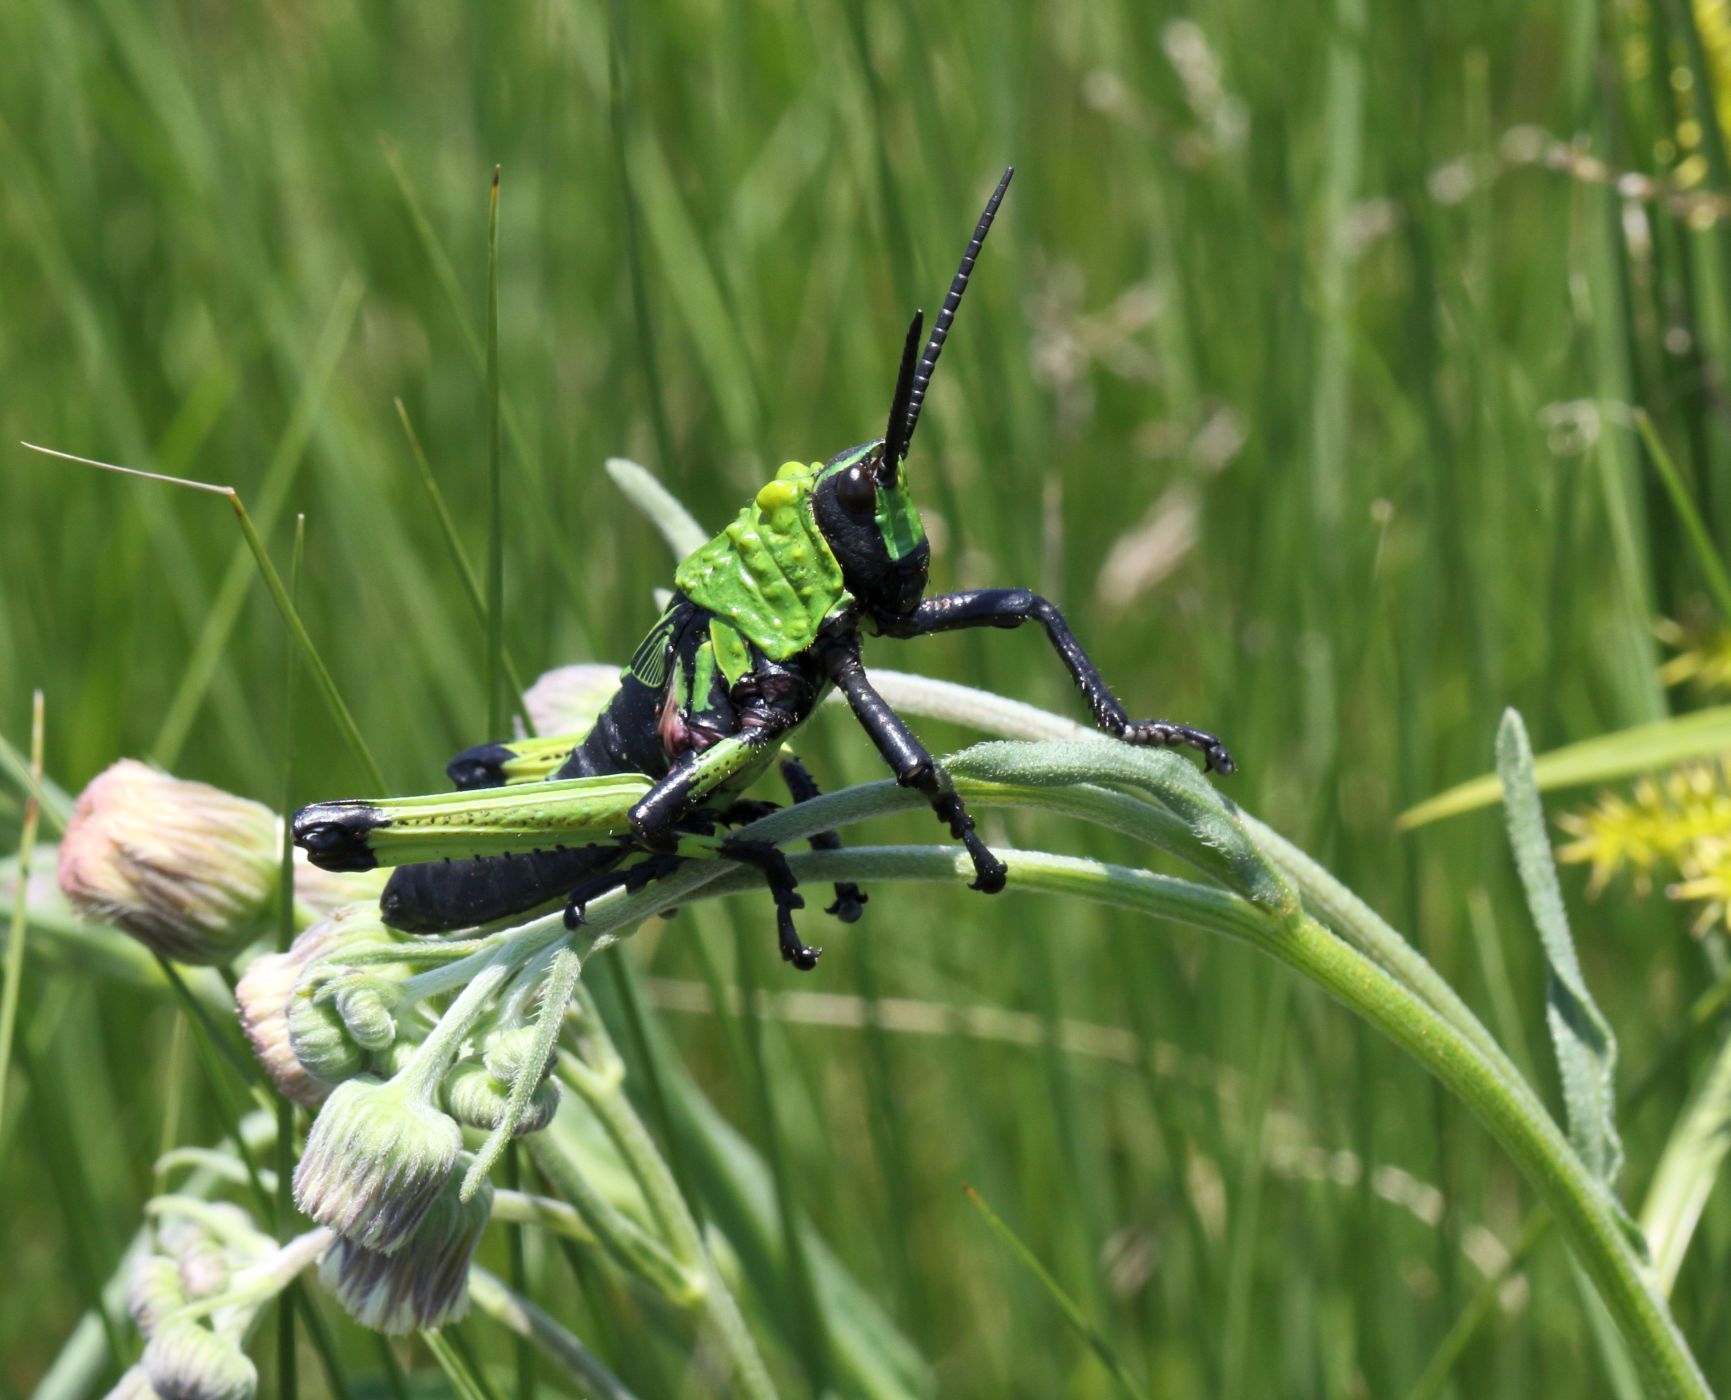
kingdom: Animalia
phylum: Arthropoda
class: Insecta
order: Orthoptera
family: Pyrgomorphidae
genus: Phymateus
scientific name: Phymateus leprosus
